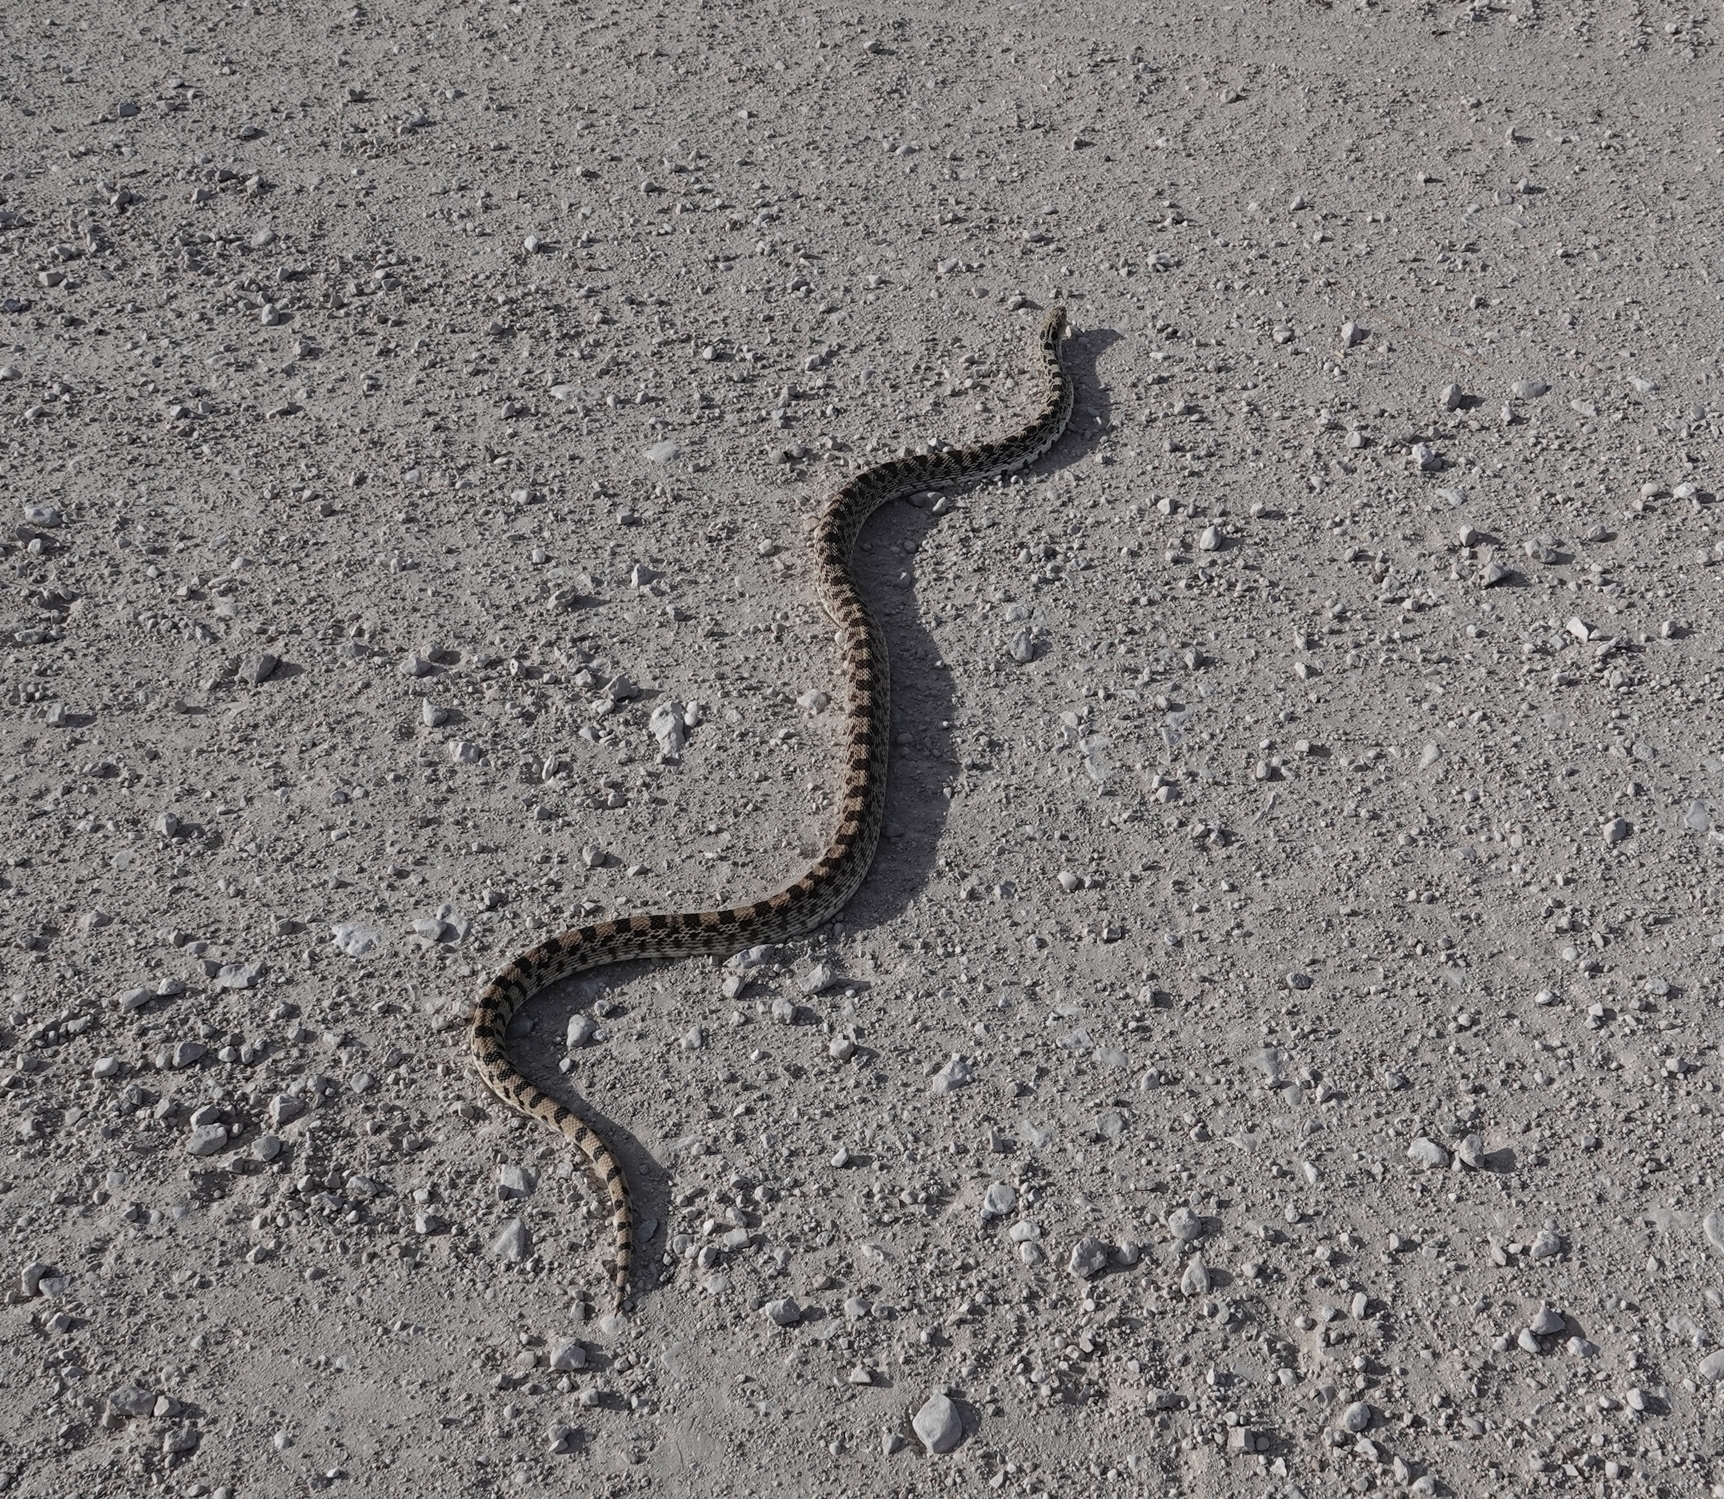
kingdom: Animalia
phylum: Chordata
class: Squamata
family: Colubridae
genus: Pituophis
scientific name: Pituophis catenifer
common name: Gopher snake
